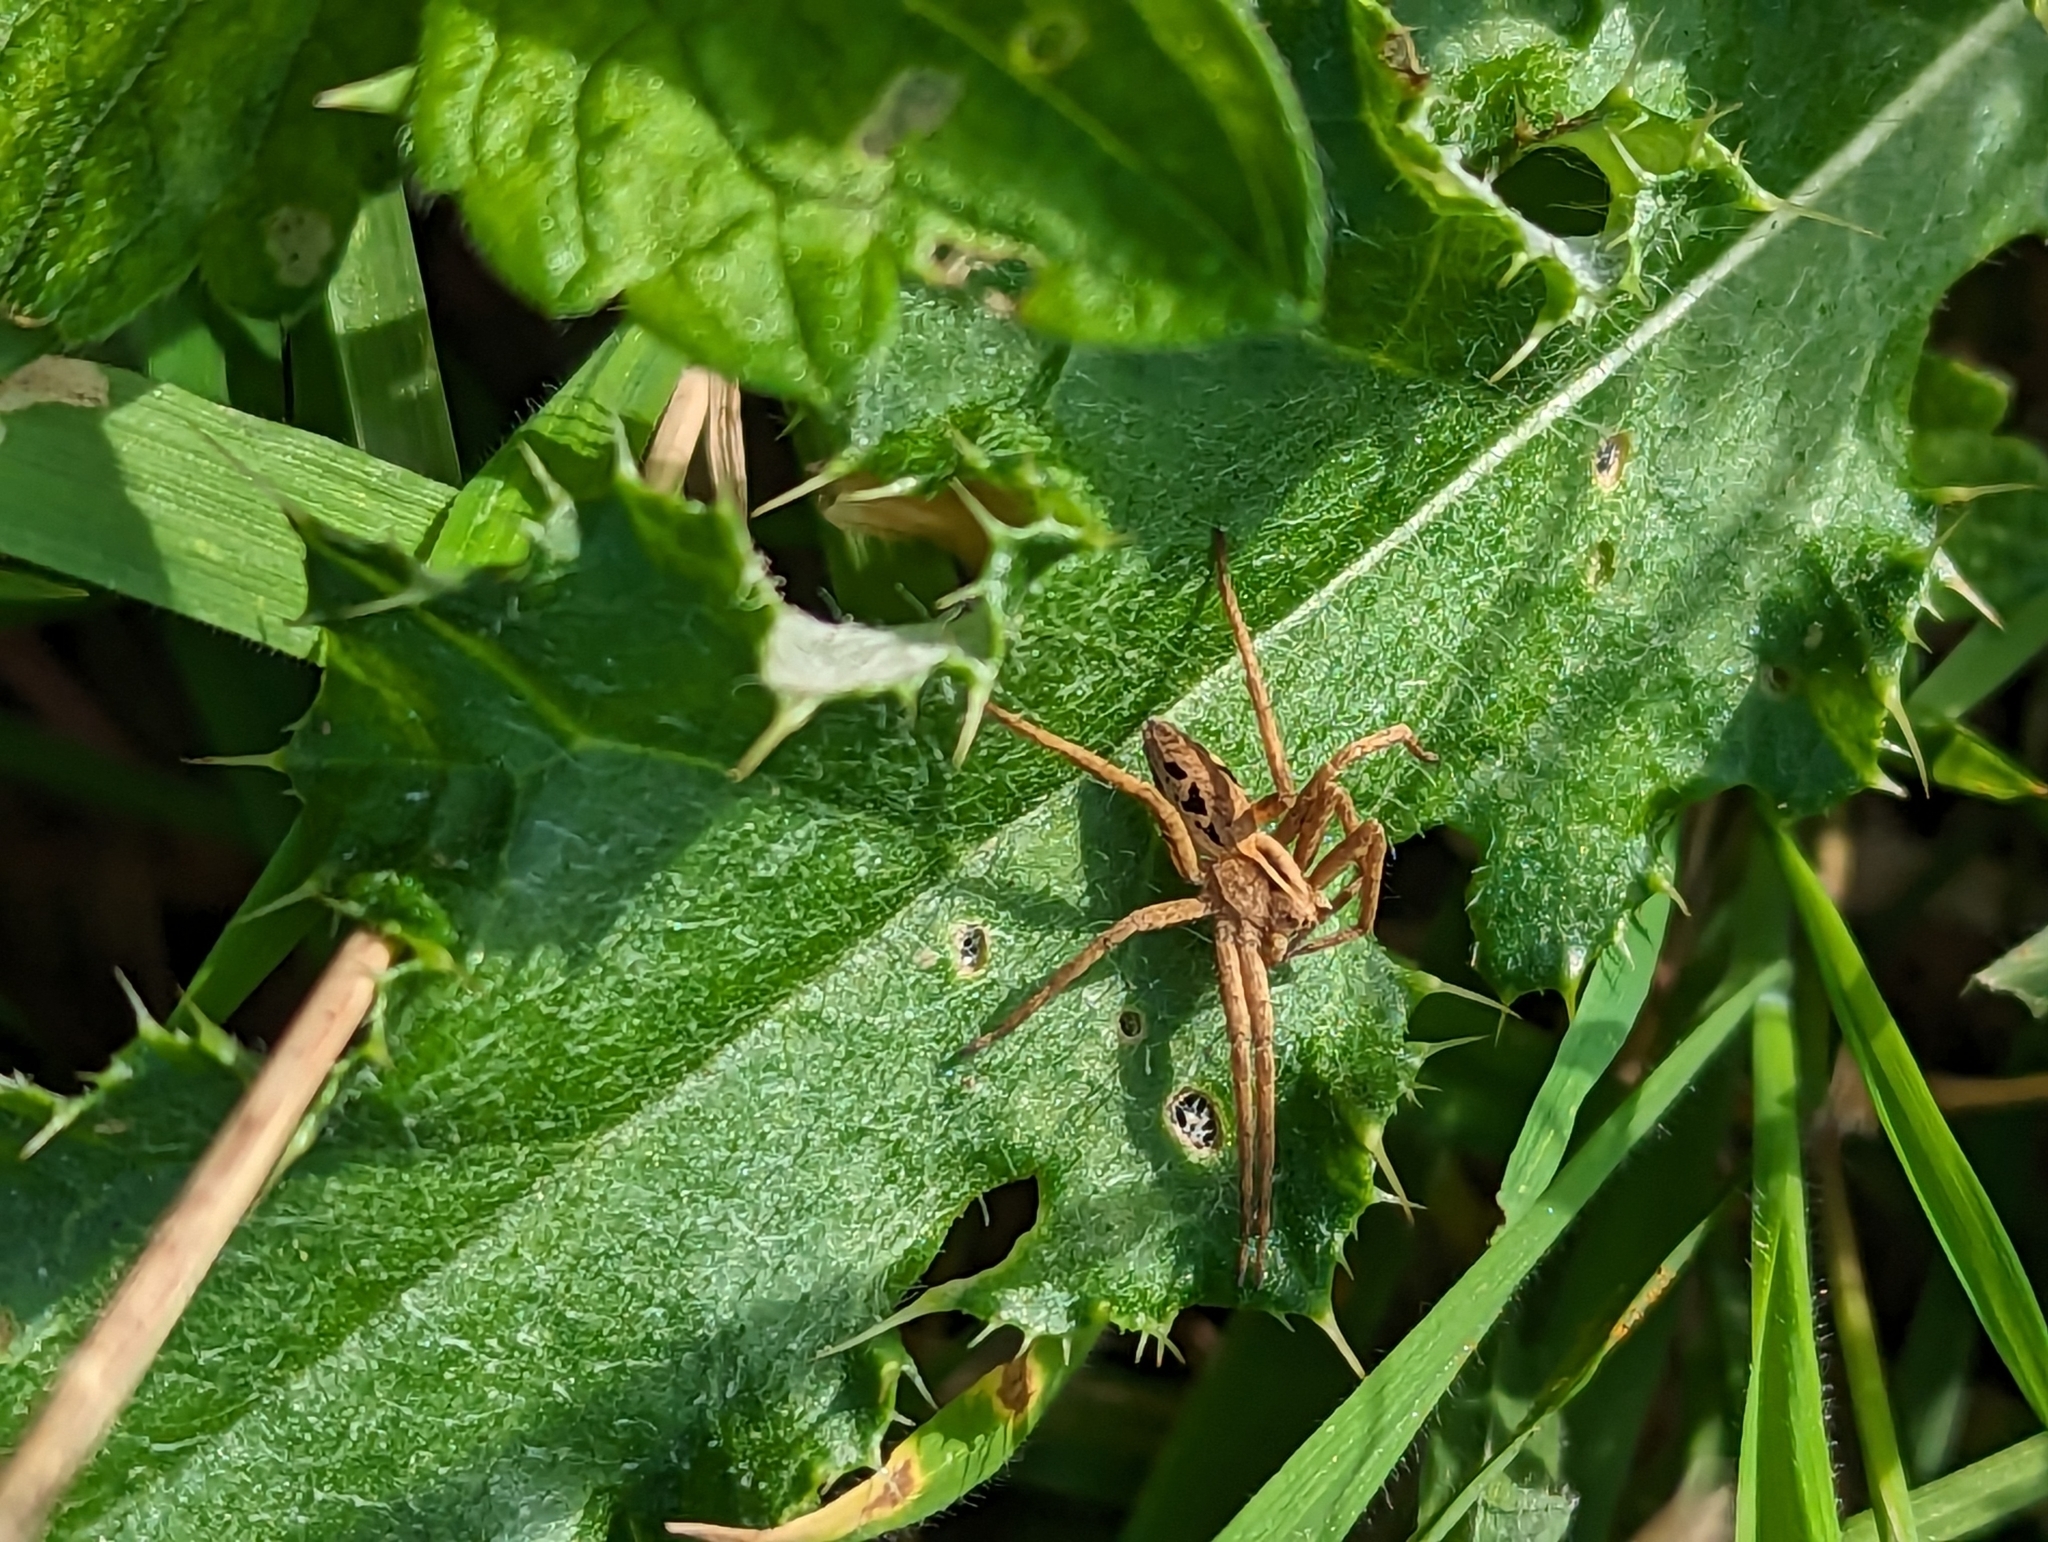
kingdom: Animalia
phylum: Arthropoda
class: Arachnida
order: Araneae
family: Pisauridae
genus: Pisaura
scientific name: Pisaura mirabilis
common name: Tent spider
